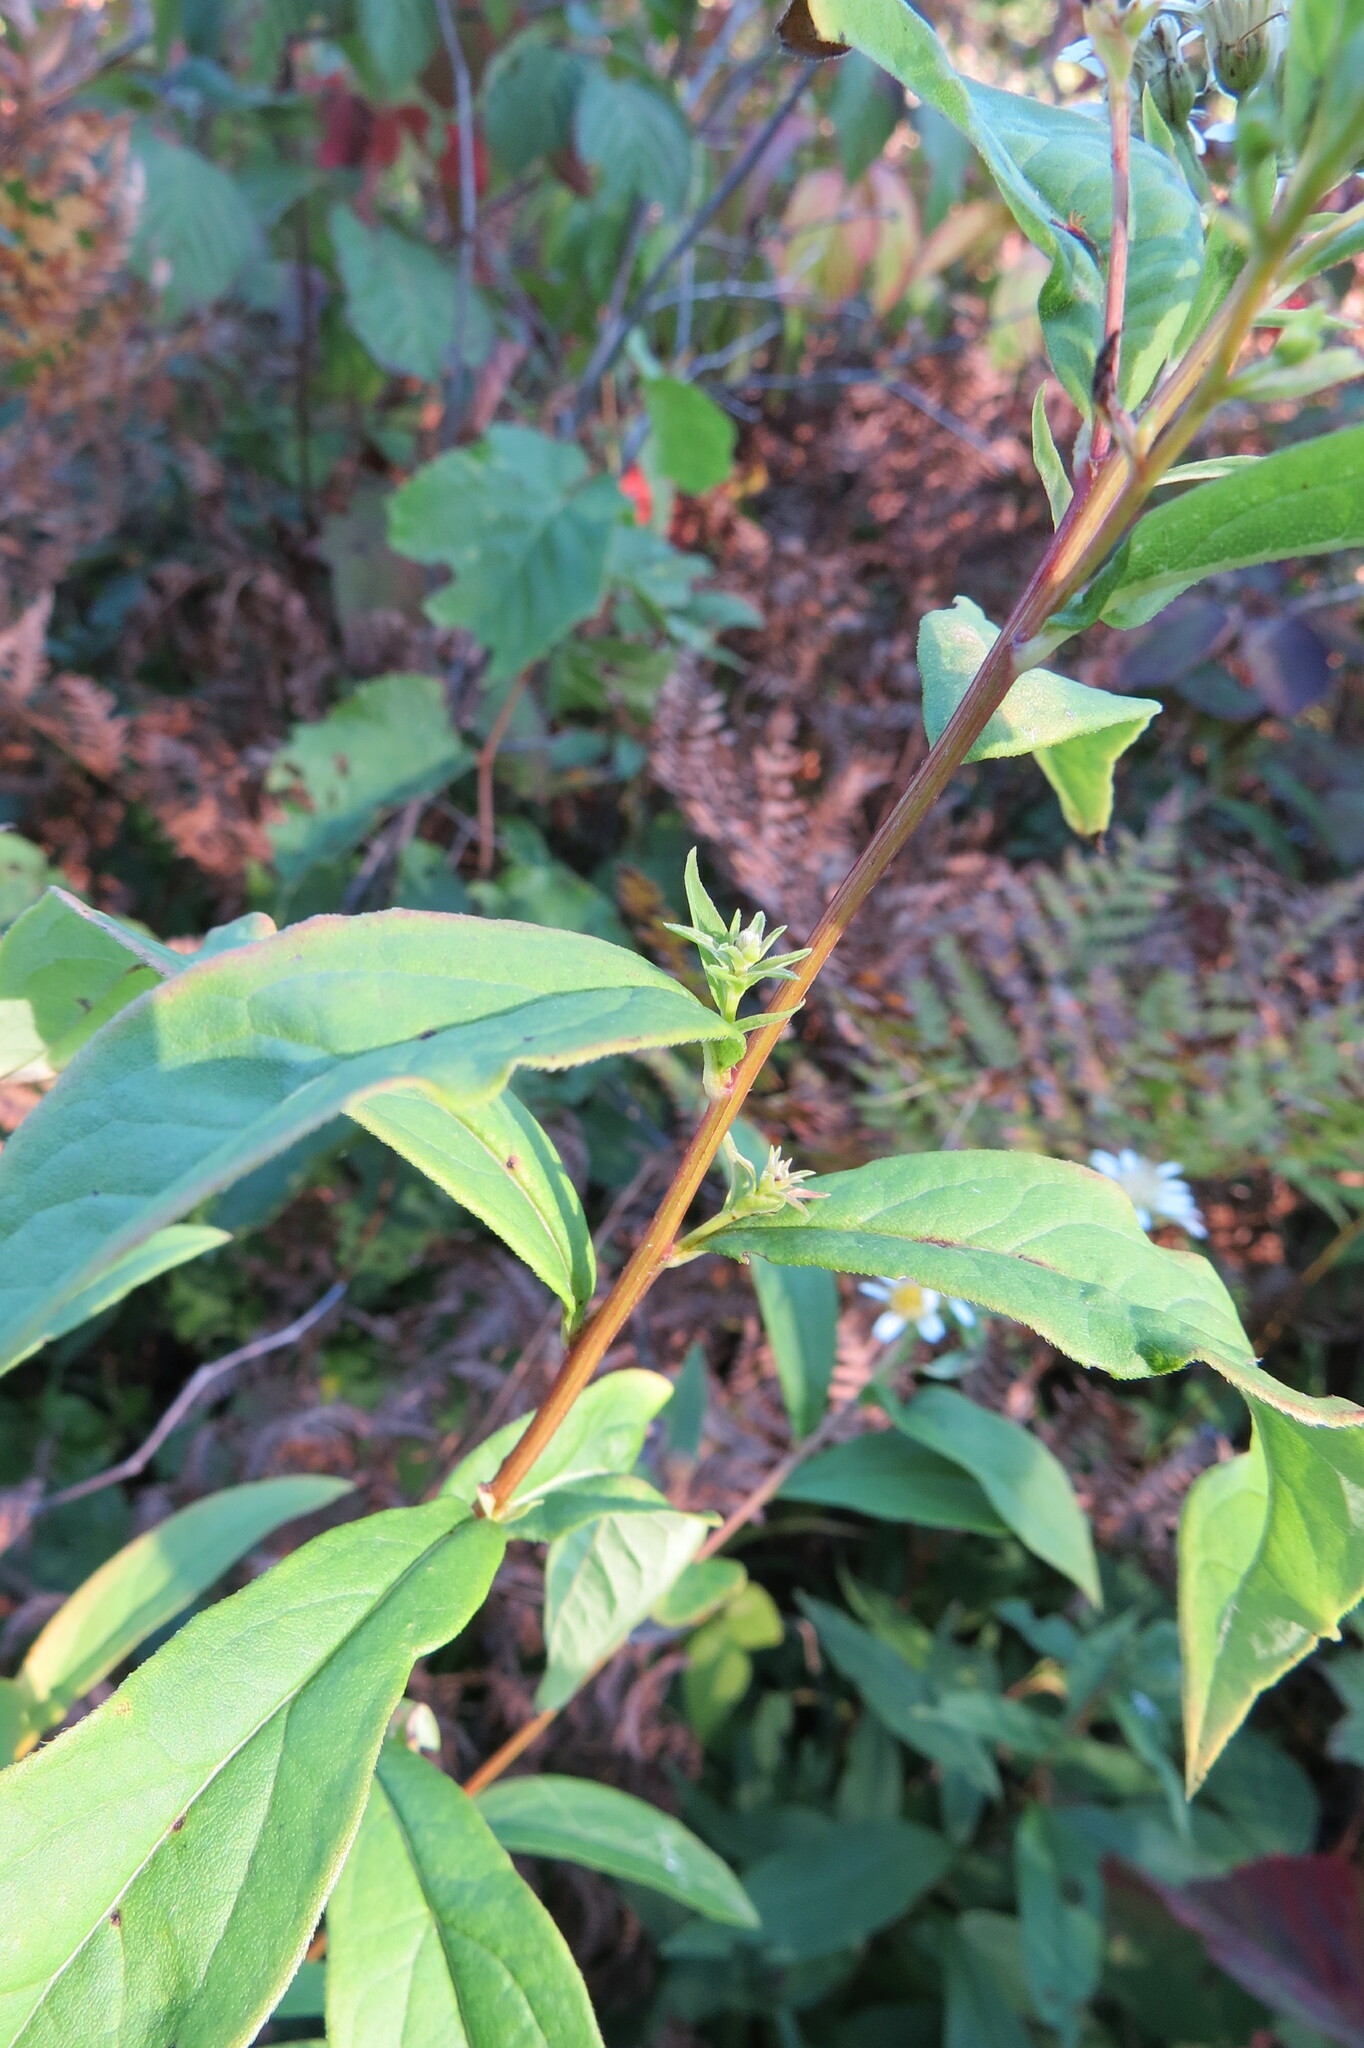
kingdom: Plantae
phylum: Tracheophyta
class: Magnoliopsida
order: Asterales
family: Asteraceae
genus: Symphyotrichum
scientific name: Symphyotrichum pilosum
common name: Awl aster
